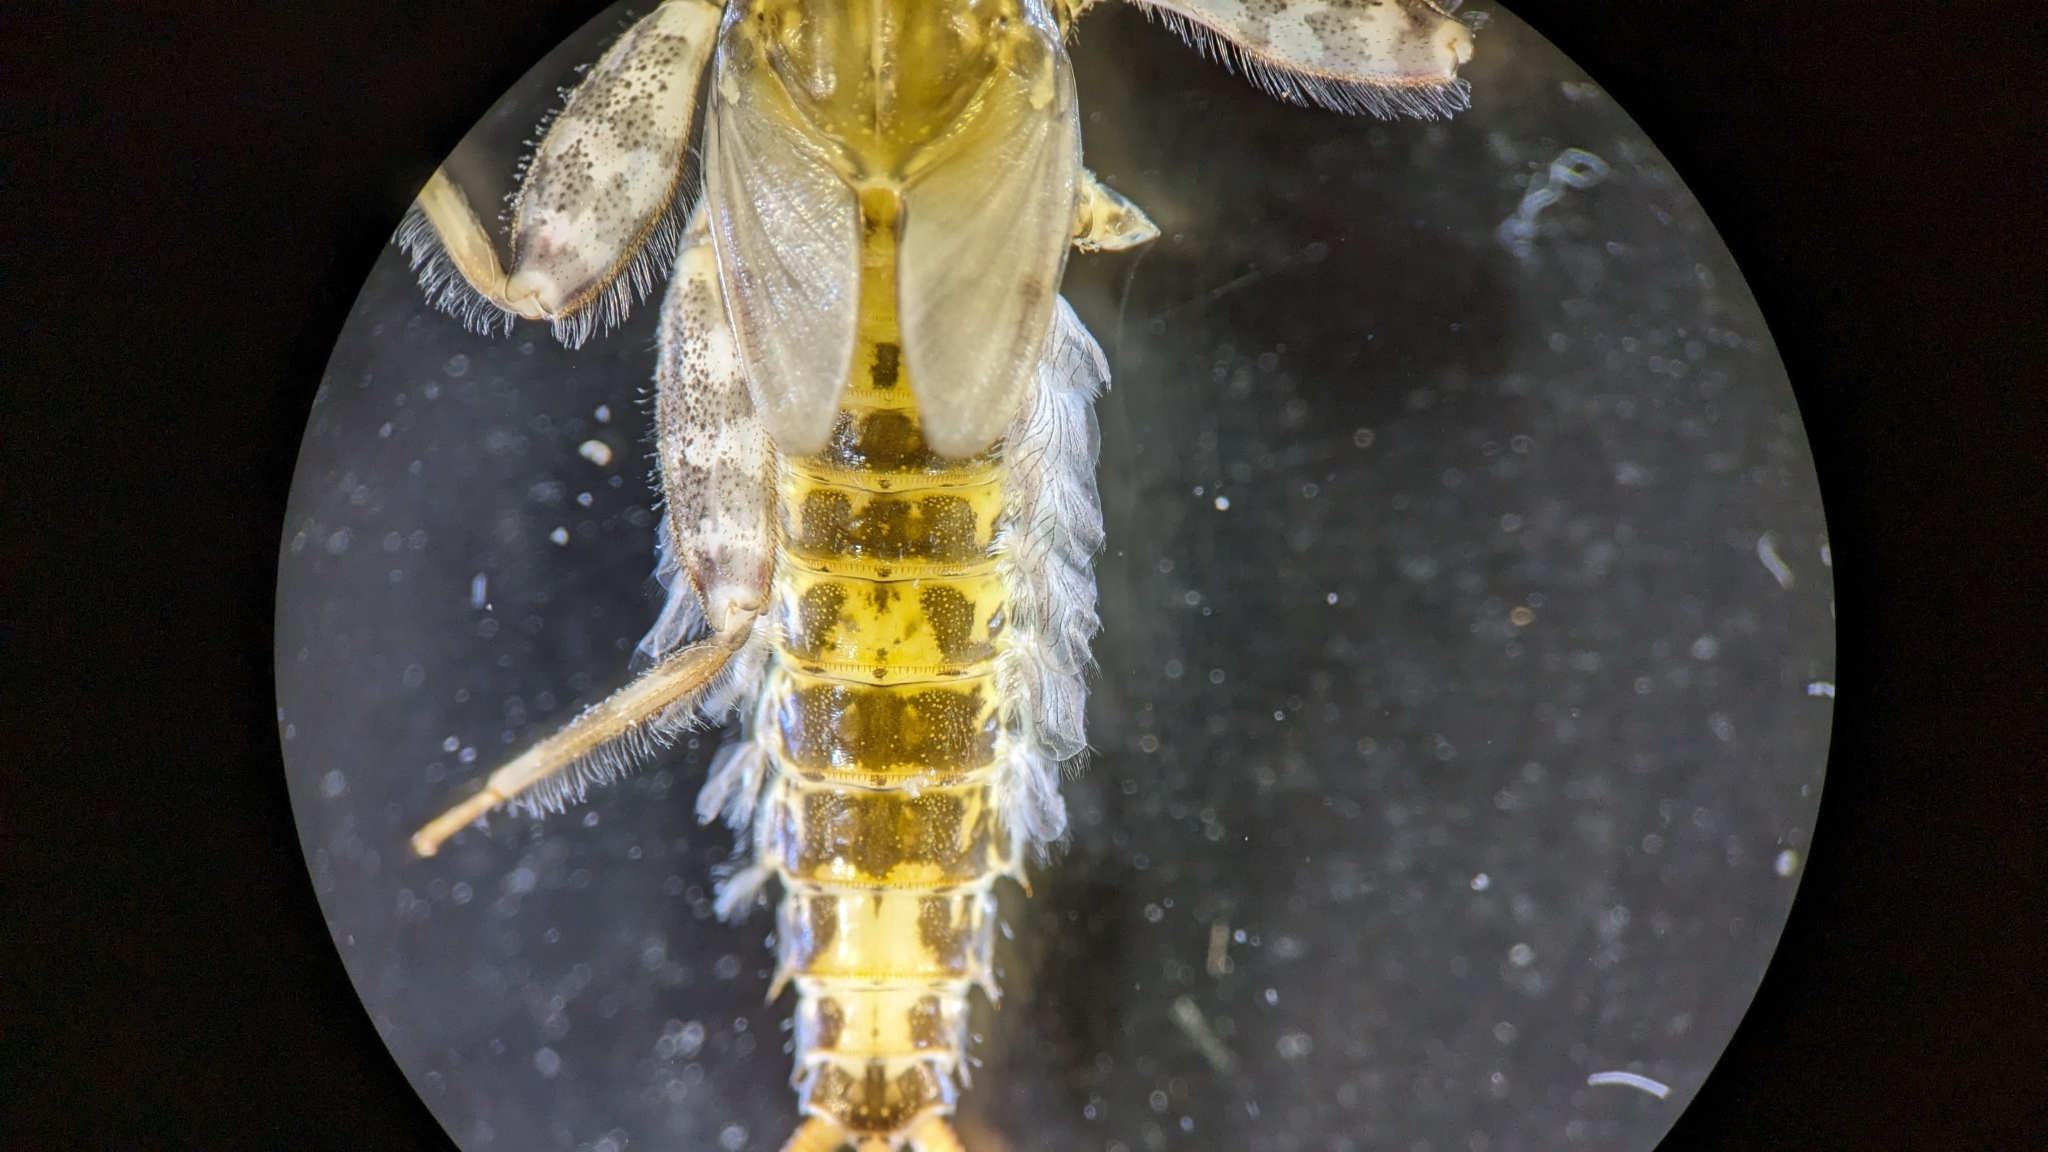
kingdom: Animalia
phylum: Arthropoda
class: Insecta
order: Ephemeroptera
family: Heptageniidae
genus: Stenonema
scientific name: Stenonema femoratum
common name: Dark cahill
